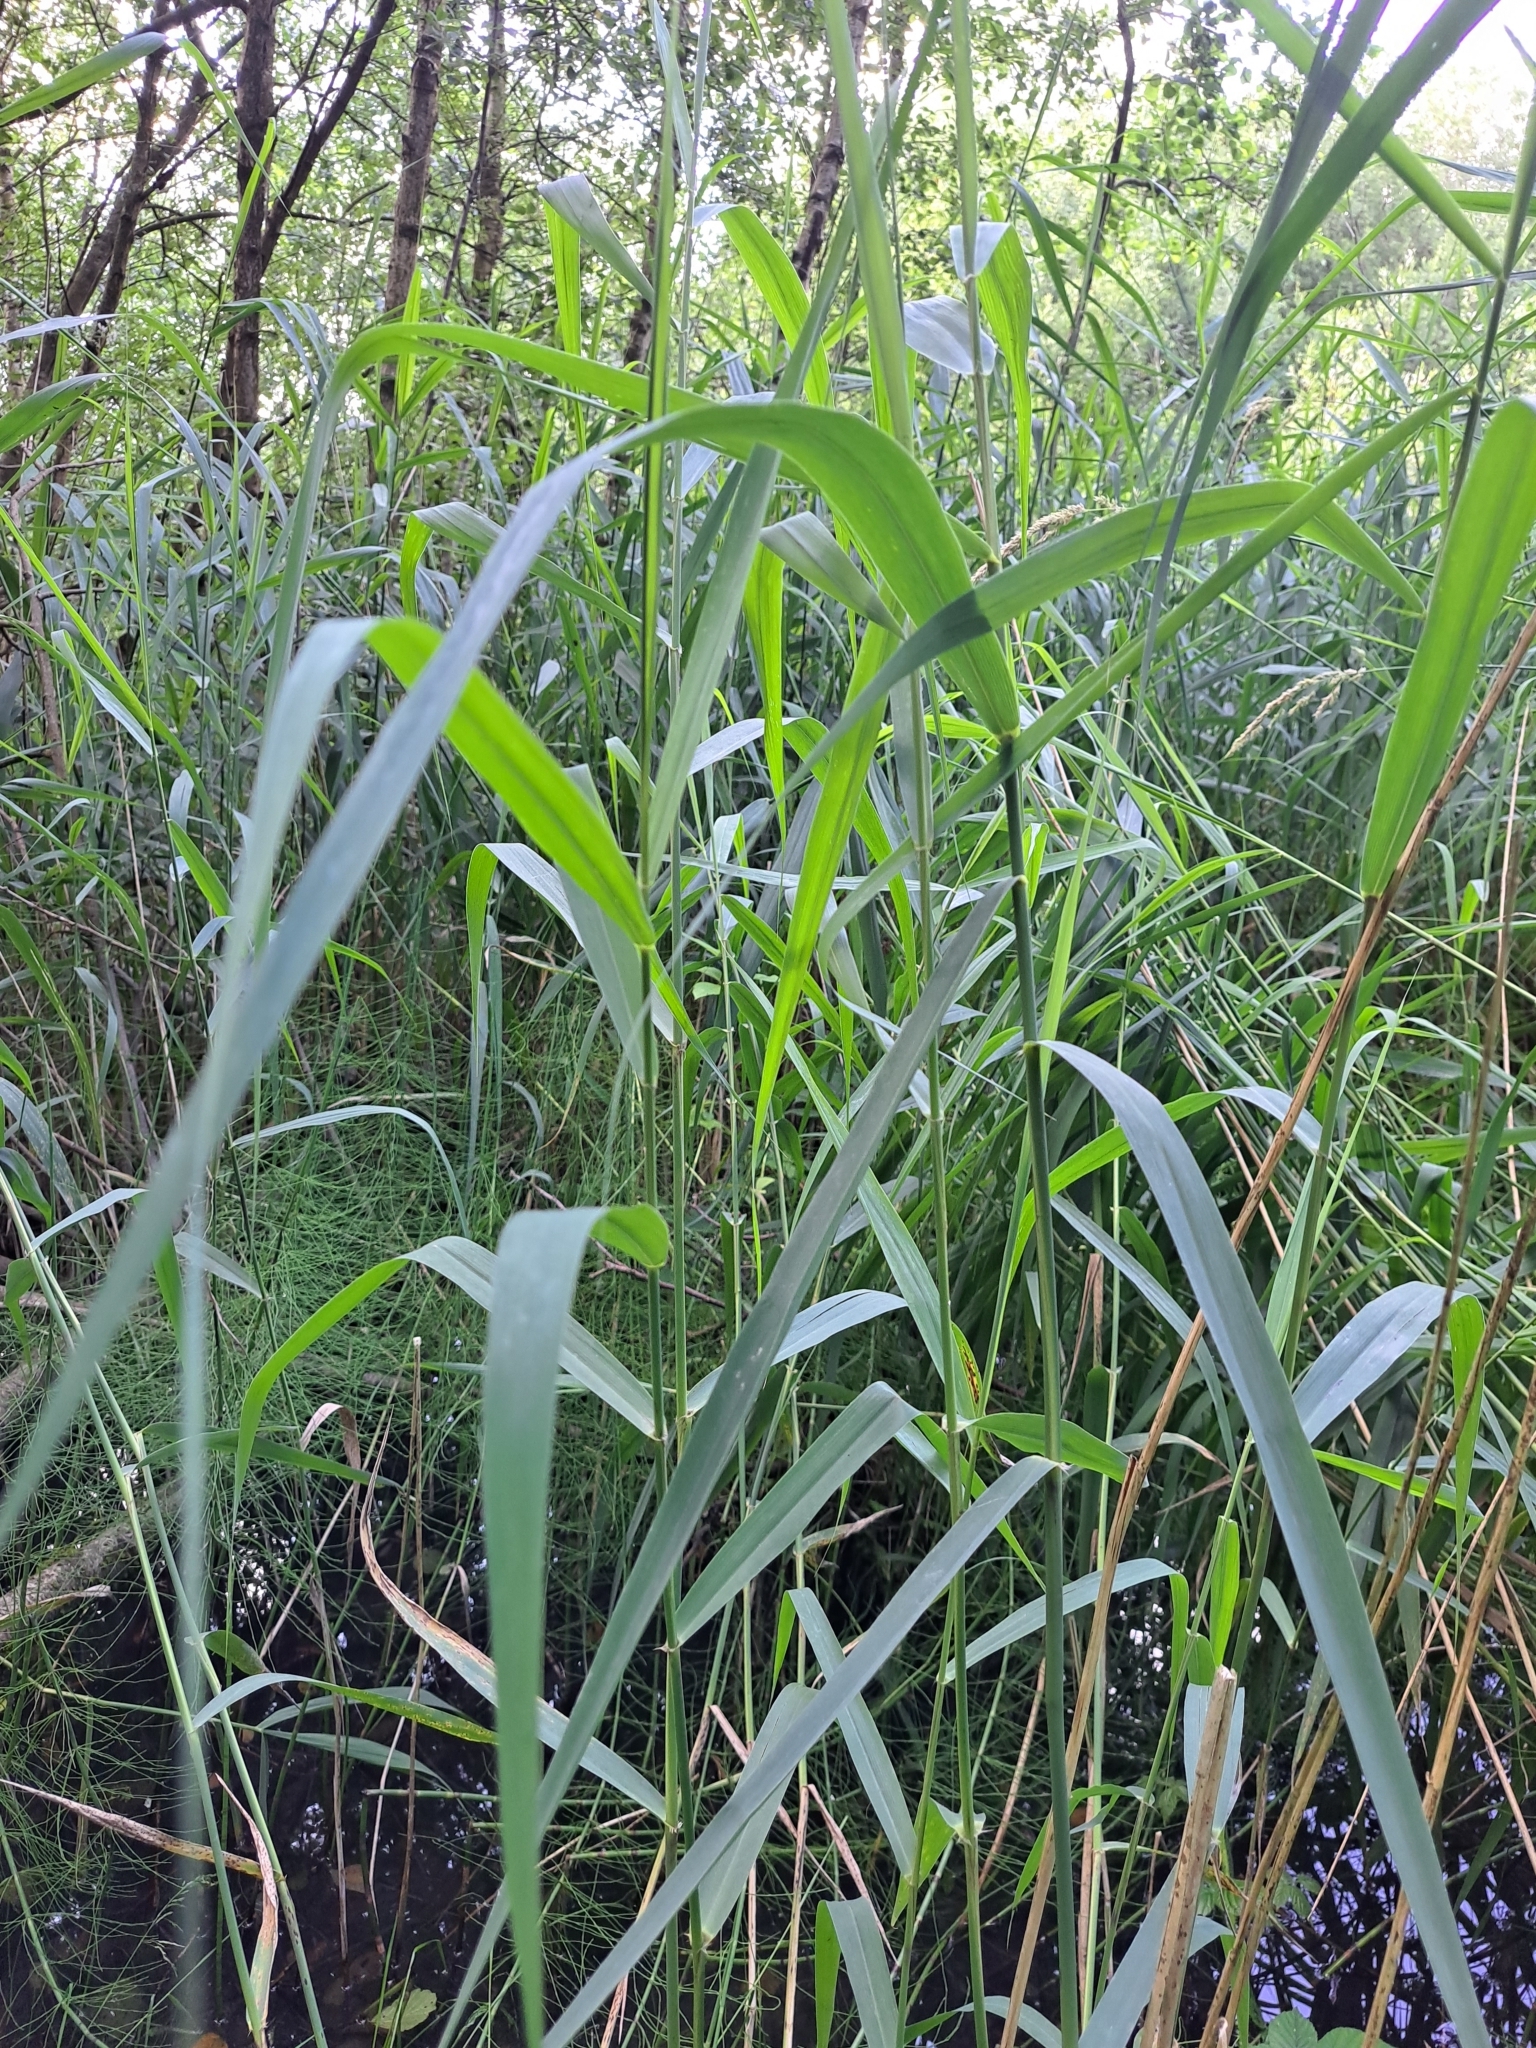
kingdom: Plantae
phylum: Tracheophyta
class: Liliopsida
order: Poales
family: Poaceae
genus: Phragmites
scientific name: Phragmites australis
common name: Common reed
